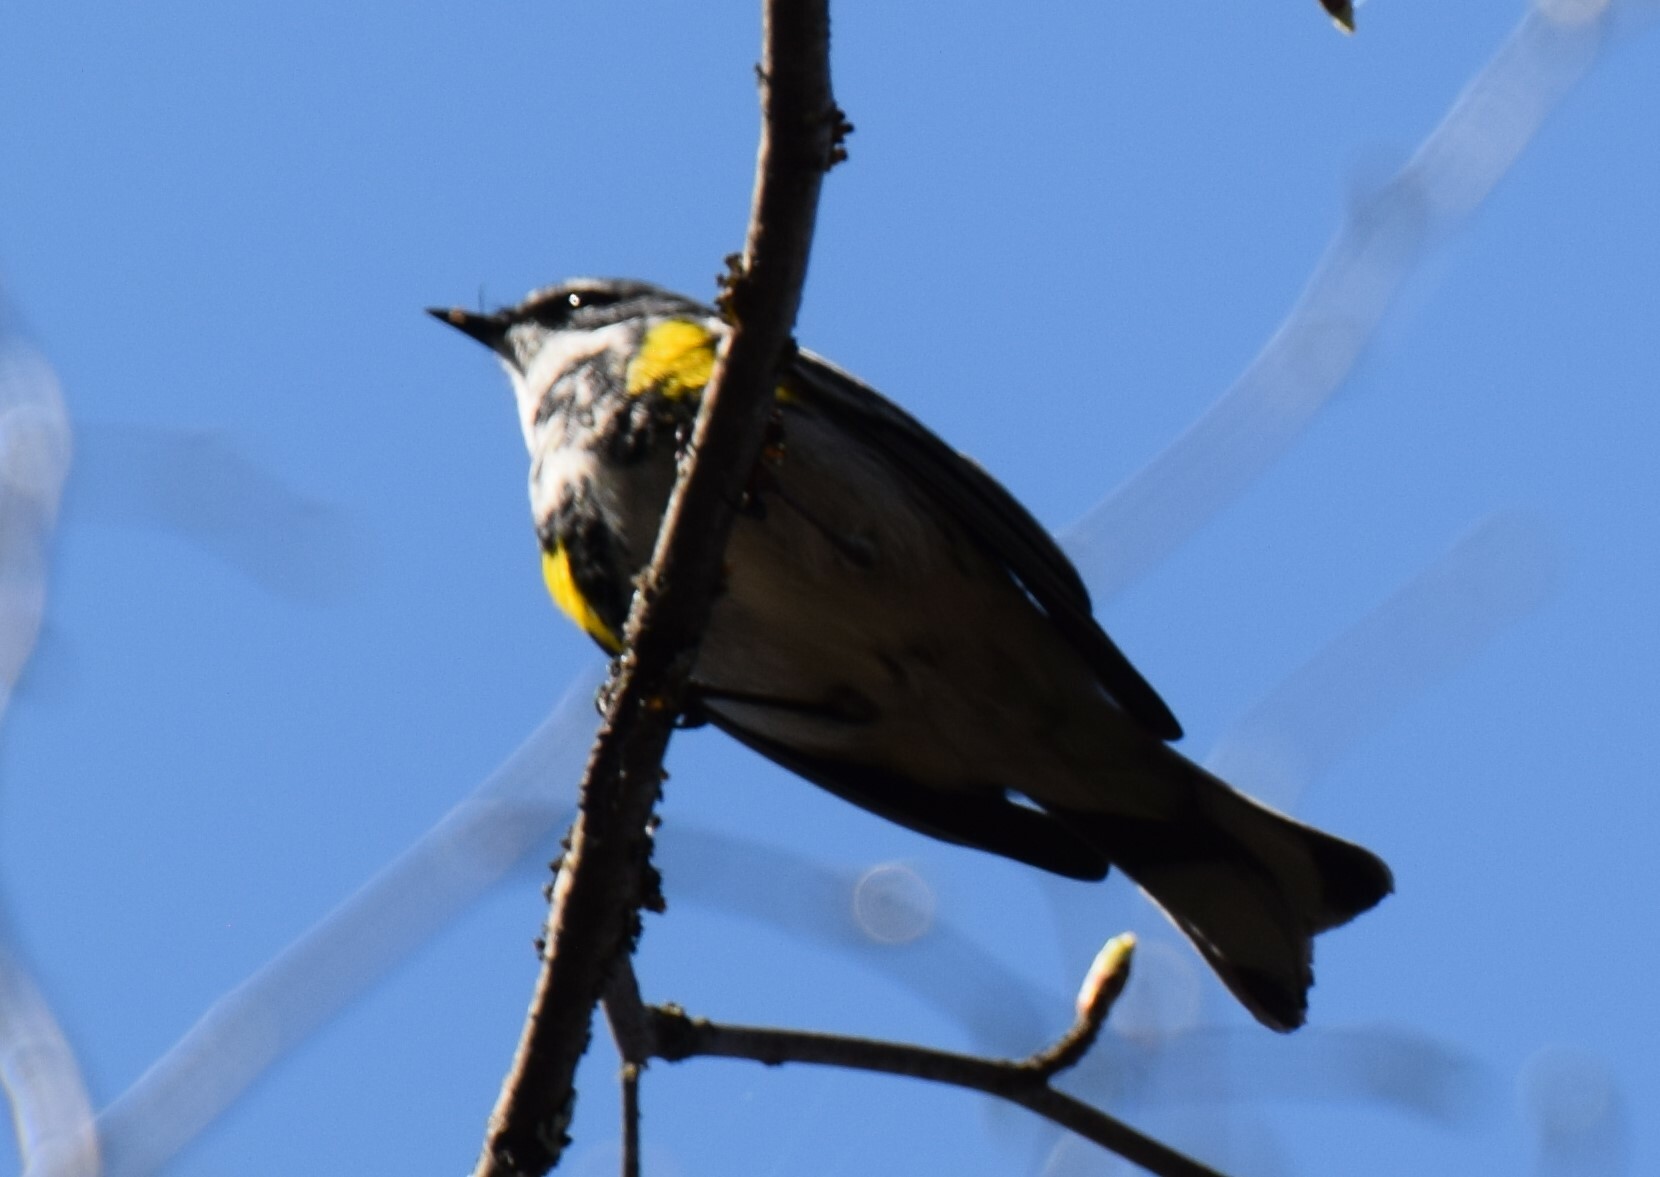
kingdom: Animalia
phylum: Chordata
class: Aves
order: Passeriformes
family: Parulidae
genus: Setophaga
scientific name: Setophaga coronata
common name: Myrtle warbler
